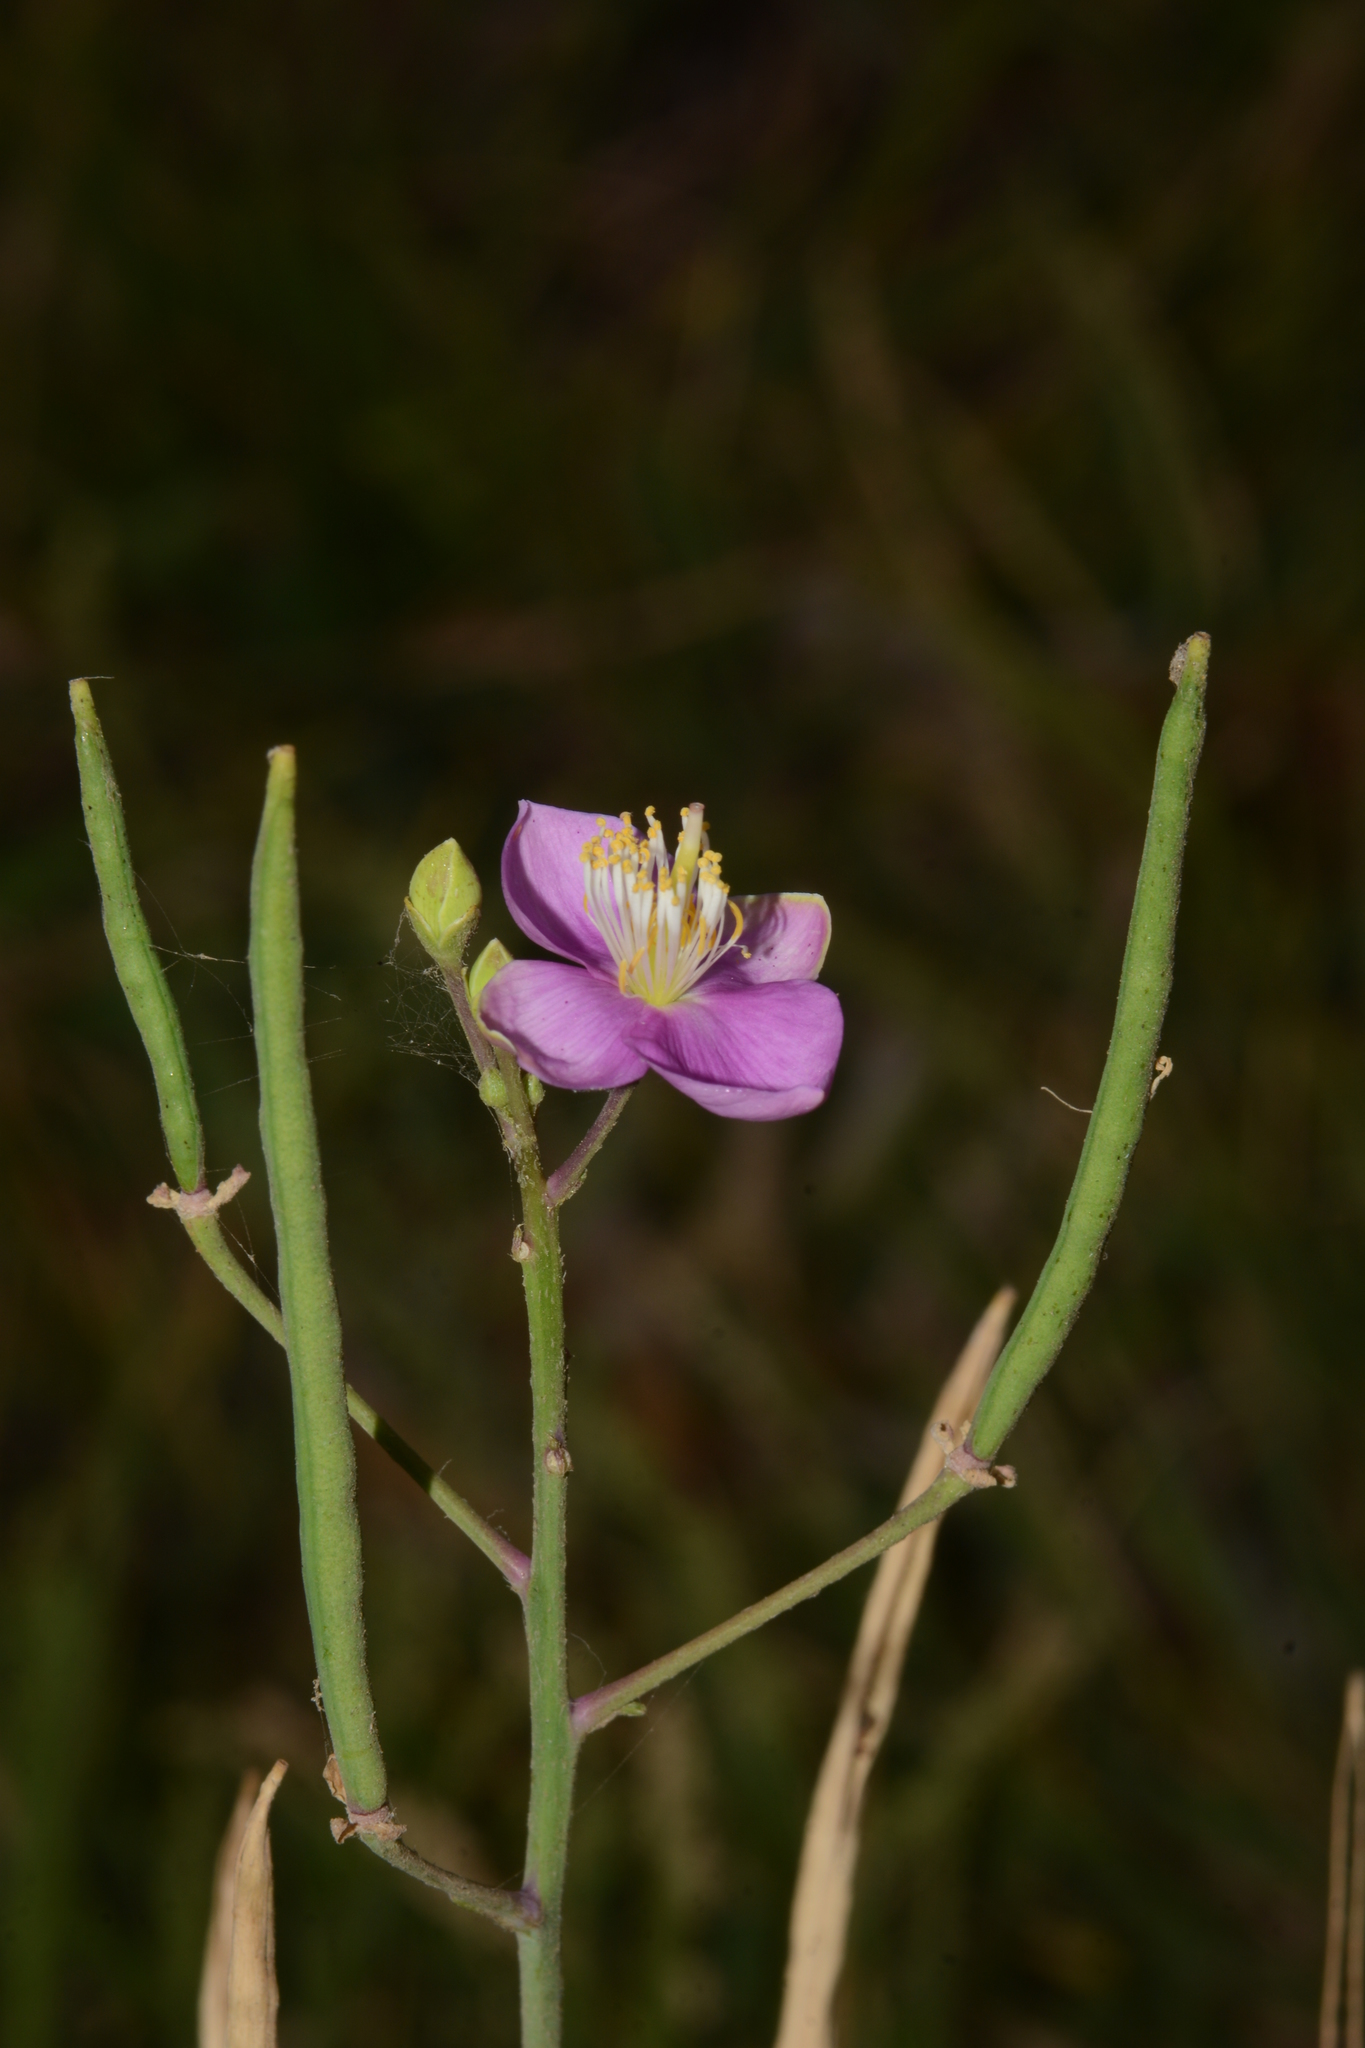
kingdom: Plantae
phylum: Tracheophyta
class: Magnoliopsida
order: Brassicales
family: Cleomaceae
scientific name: Cleomaceae
